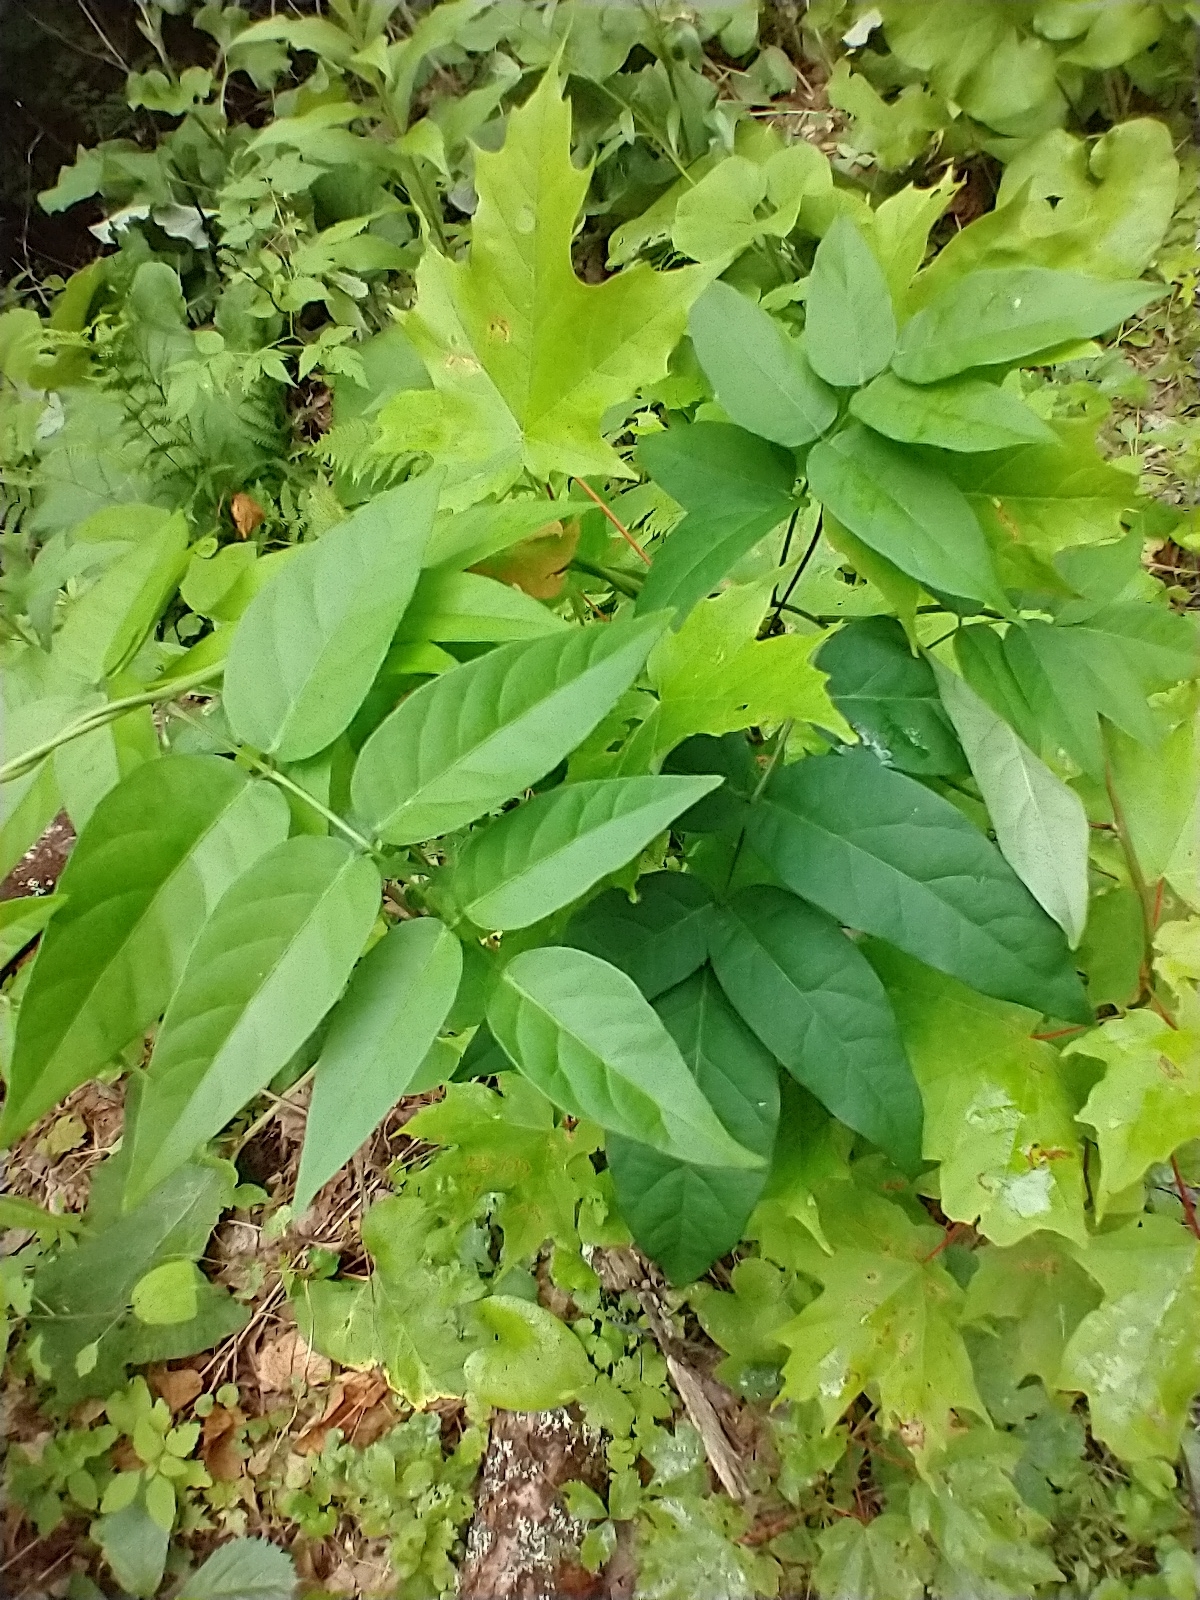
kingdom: Plantae
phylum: Tracheophyta
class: Magnoliopsida
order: Fabales
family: Fabaceae
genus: Apios
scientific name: Apios americana
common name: American potato-bean
